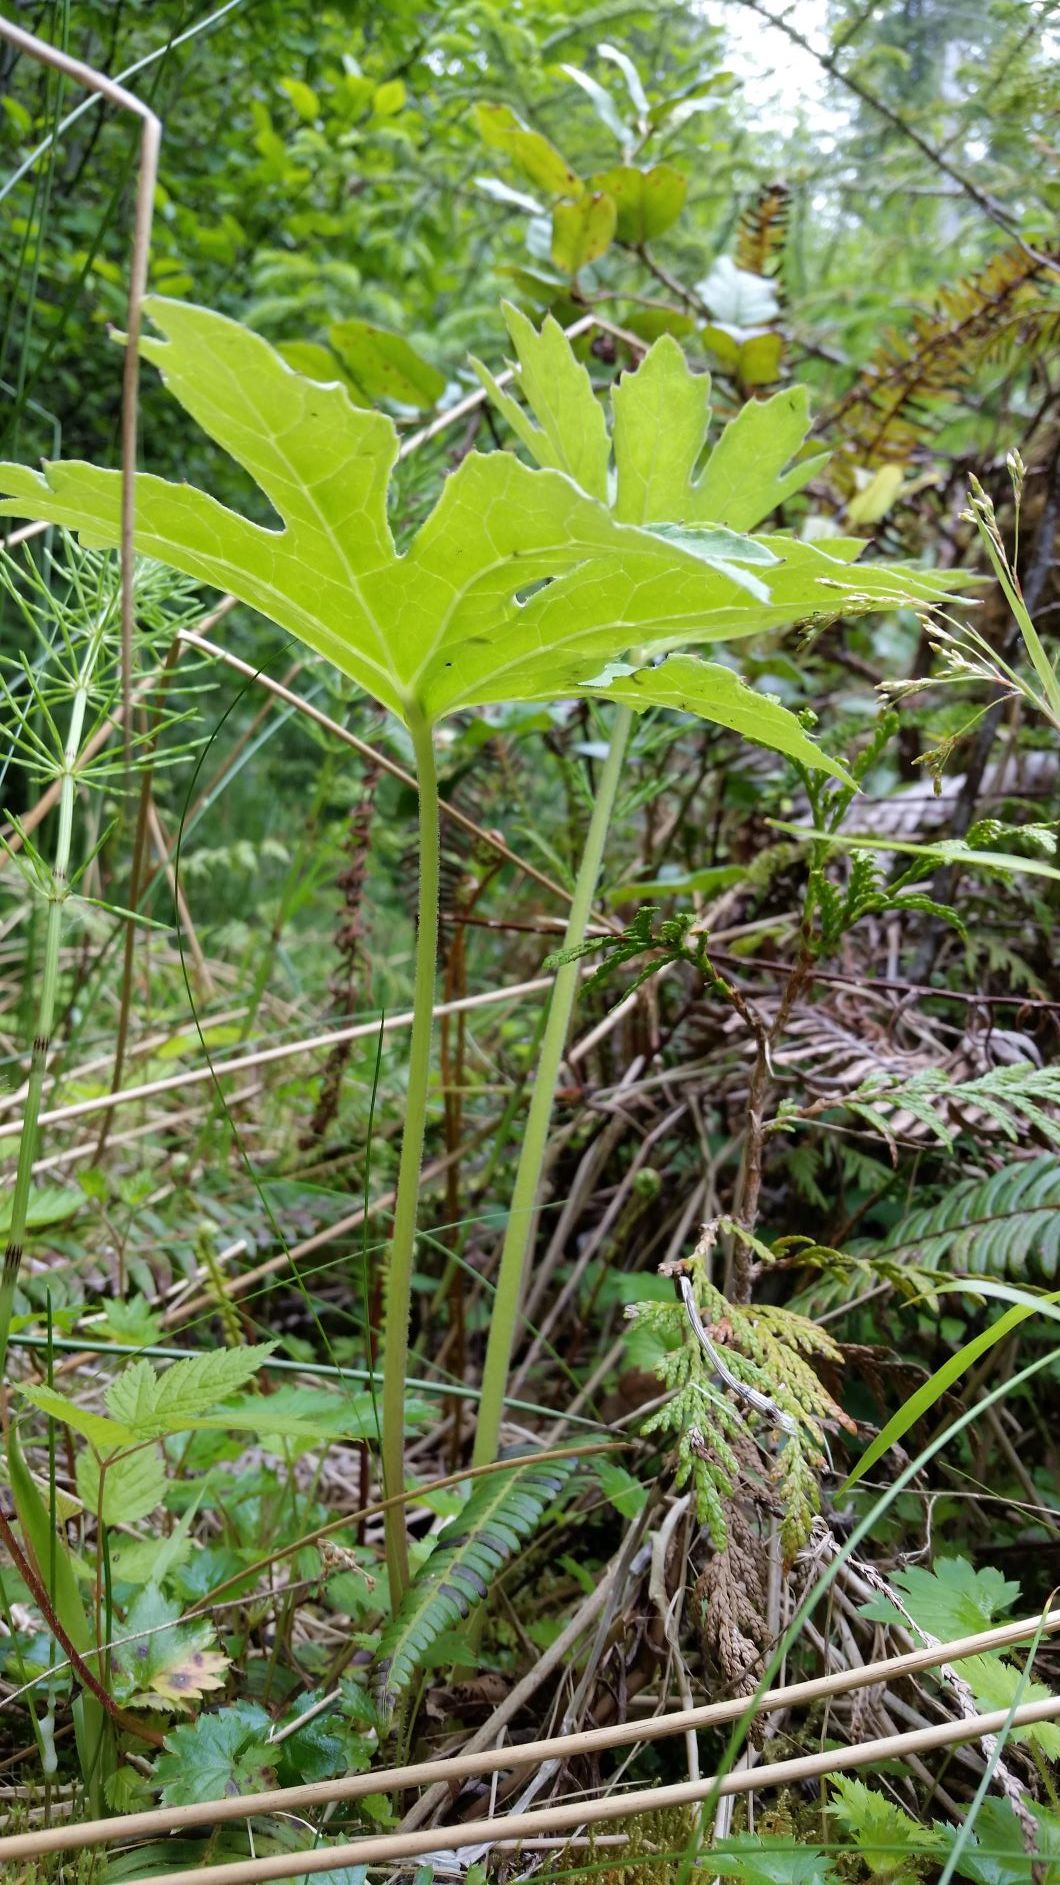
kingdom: Plantae
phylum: Tracheophyta
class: Magnoliopsida
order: Asterales
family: Asteraceae
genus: Petasites
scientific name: Petasites frigidus
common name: Arctic butterbur
